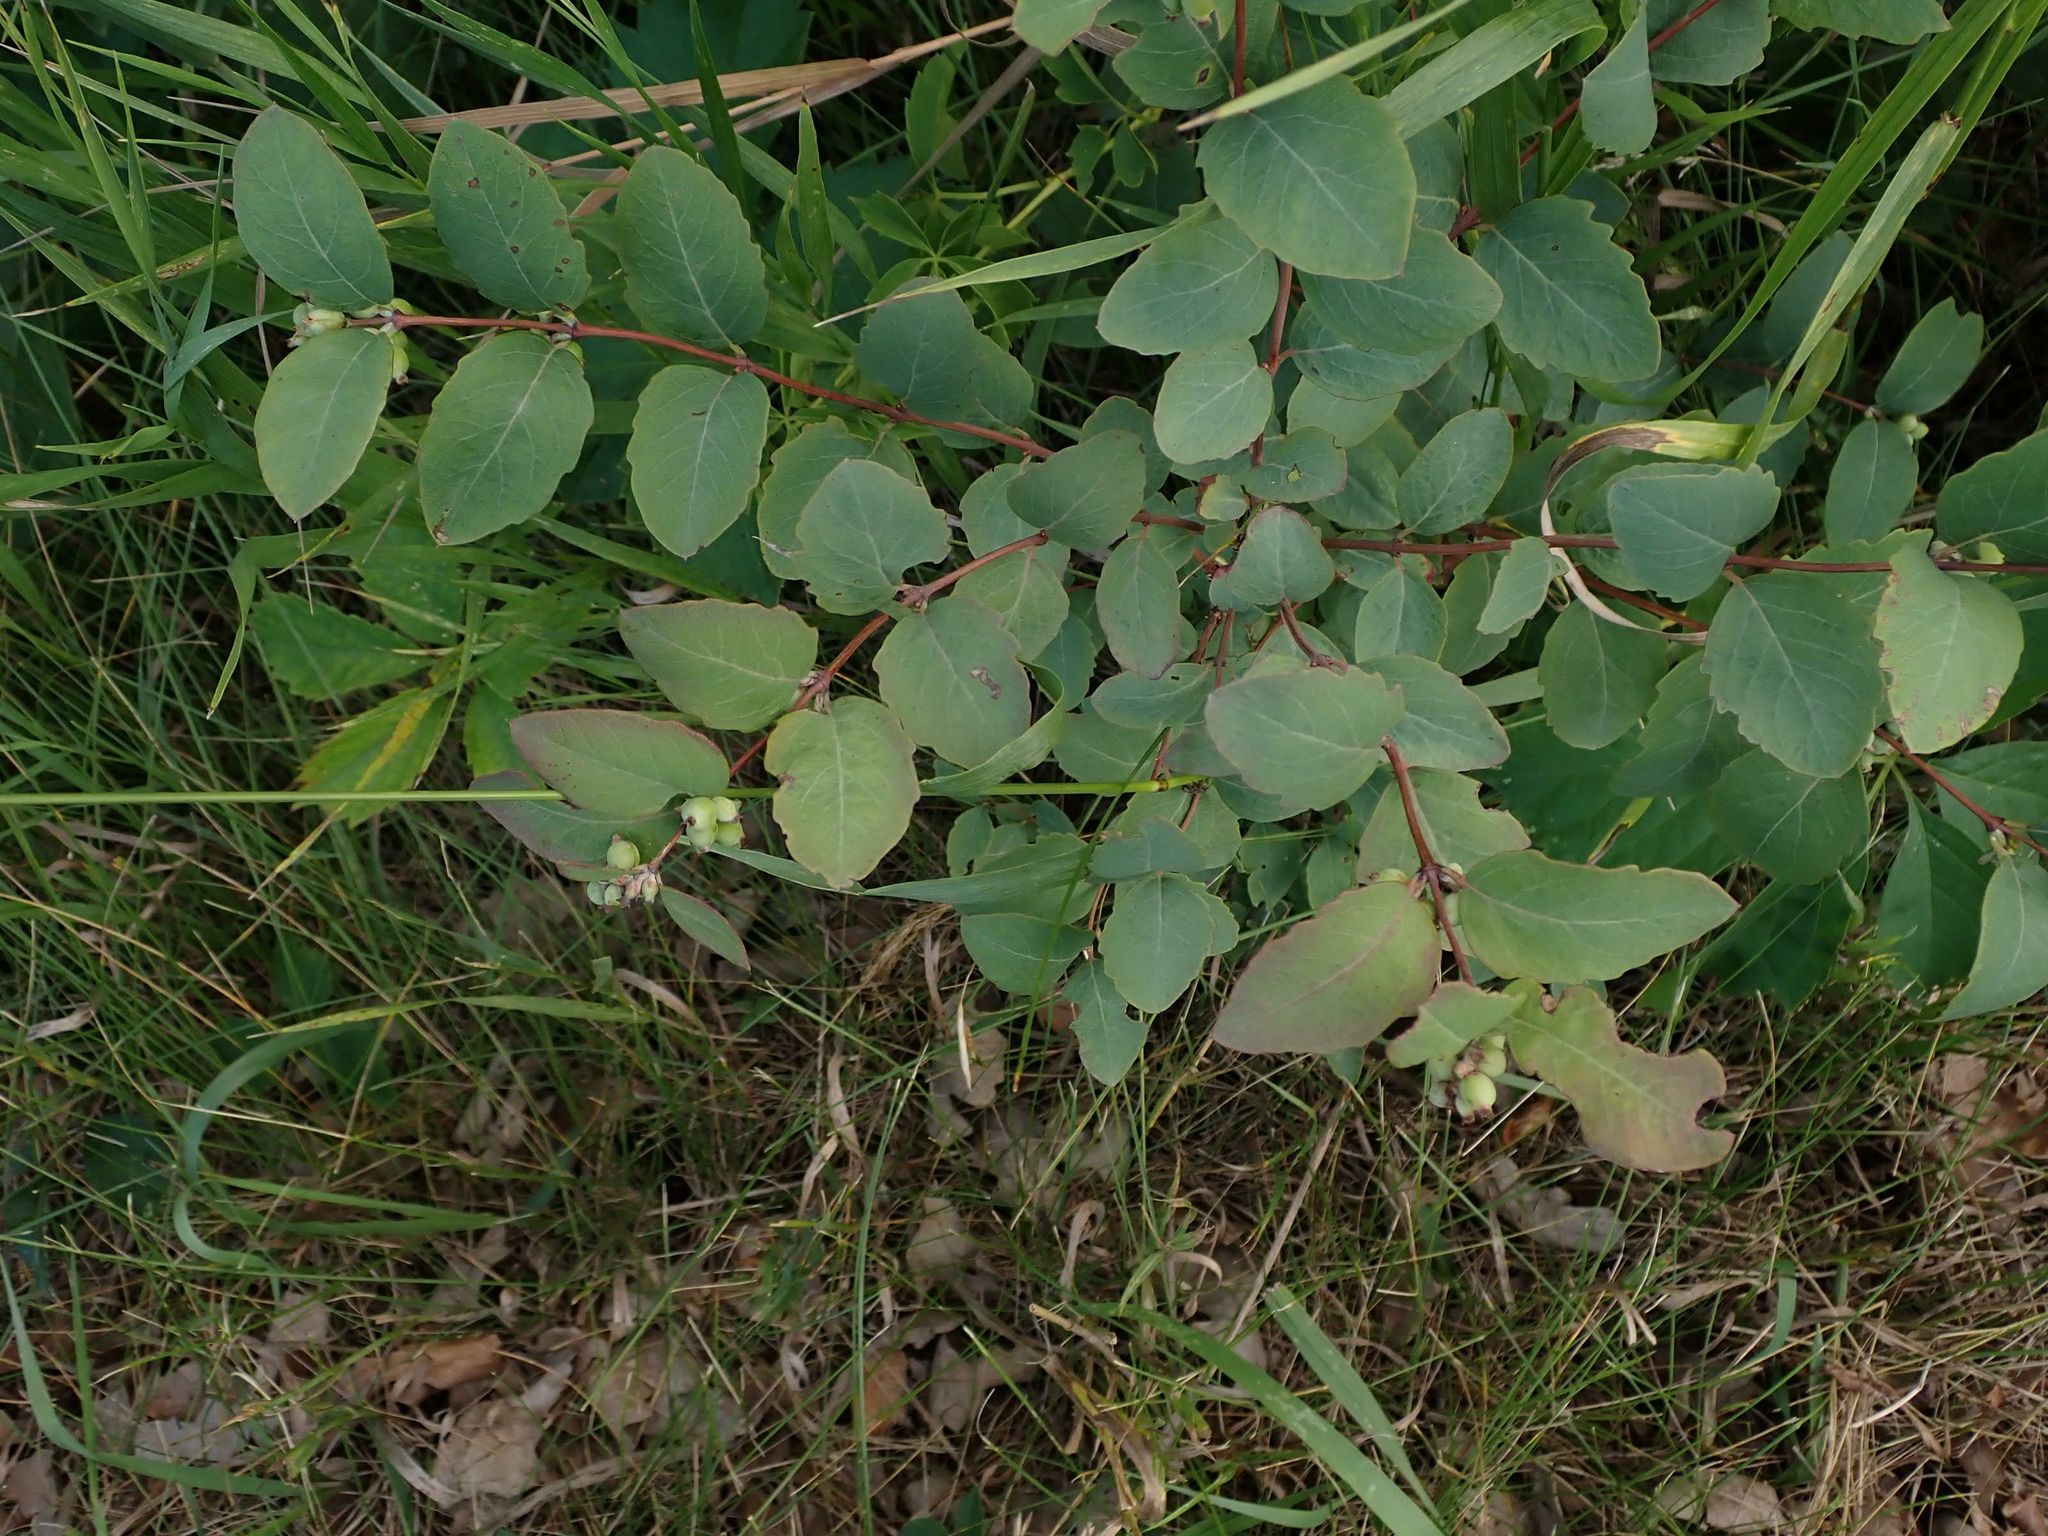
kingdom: Plantae
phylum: Tracheophyta
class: Magnoliopsida
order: Dipsacales
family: Caprifoliaceae
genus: Symphoricarpos
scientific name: Symphoricarpos occidentalis
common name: Wolfberry
